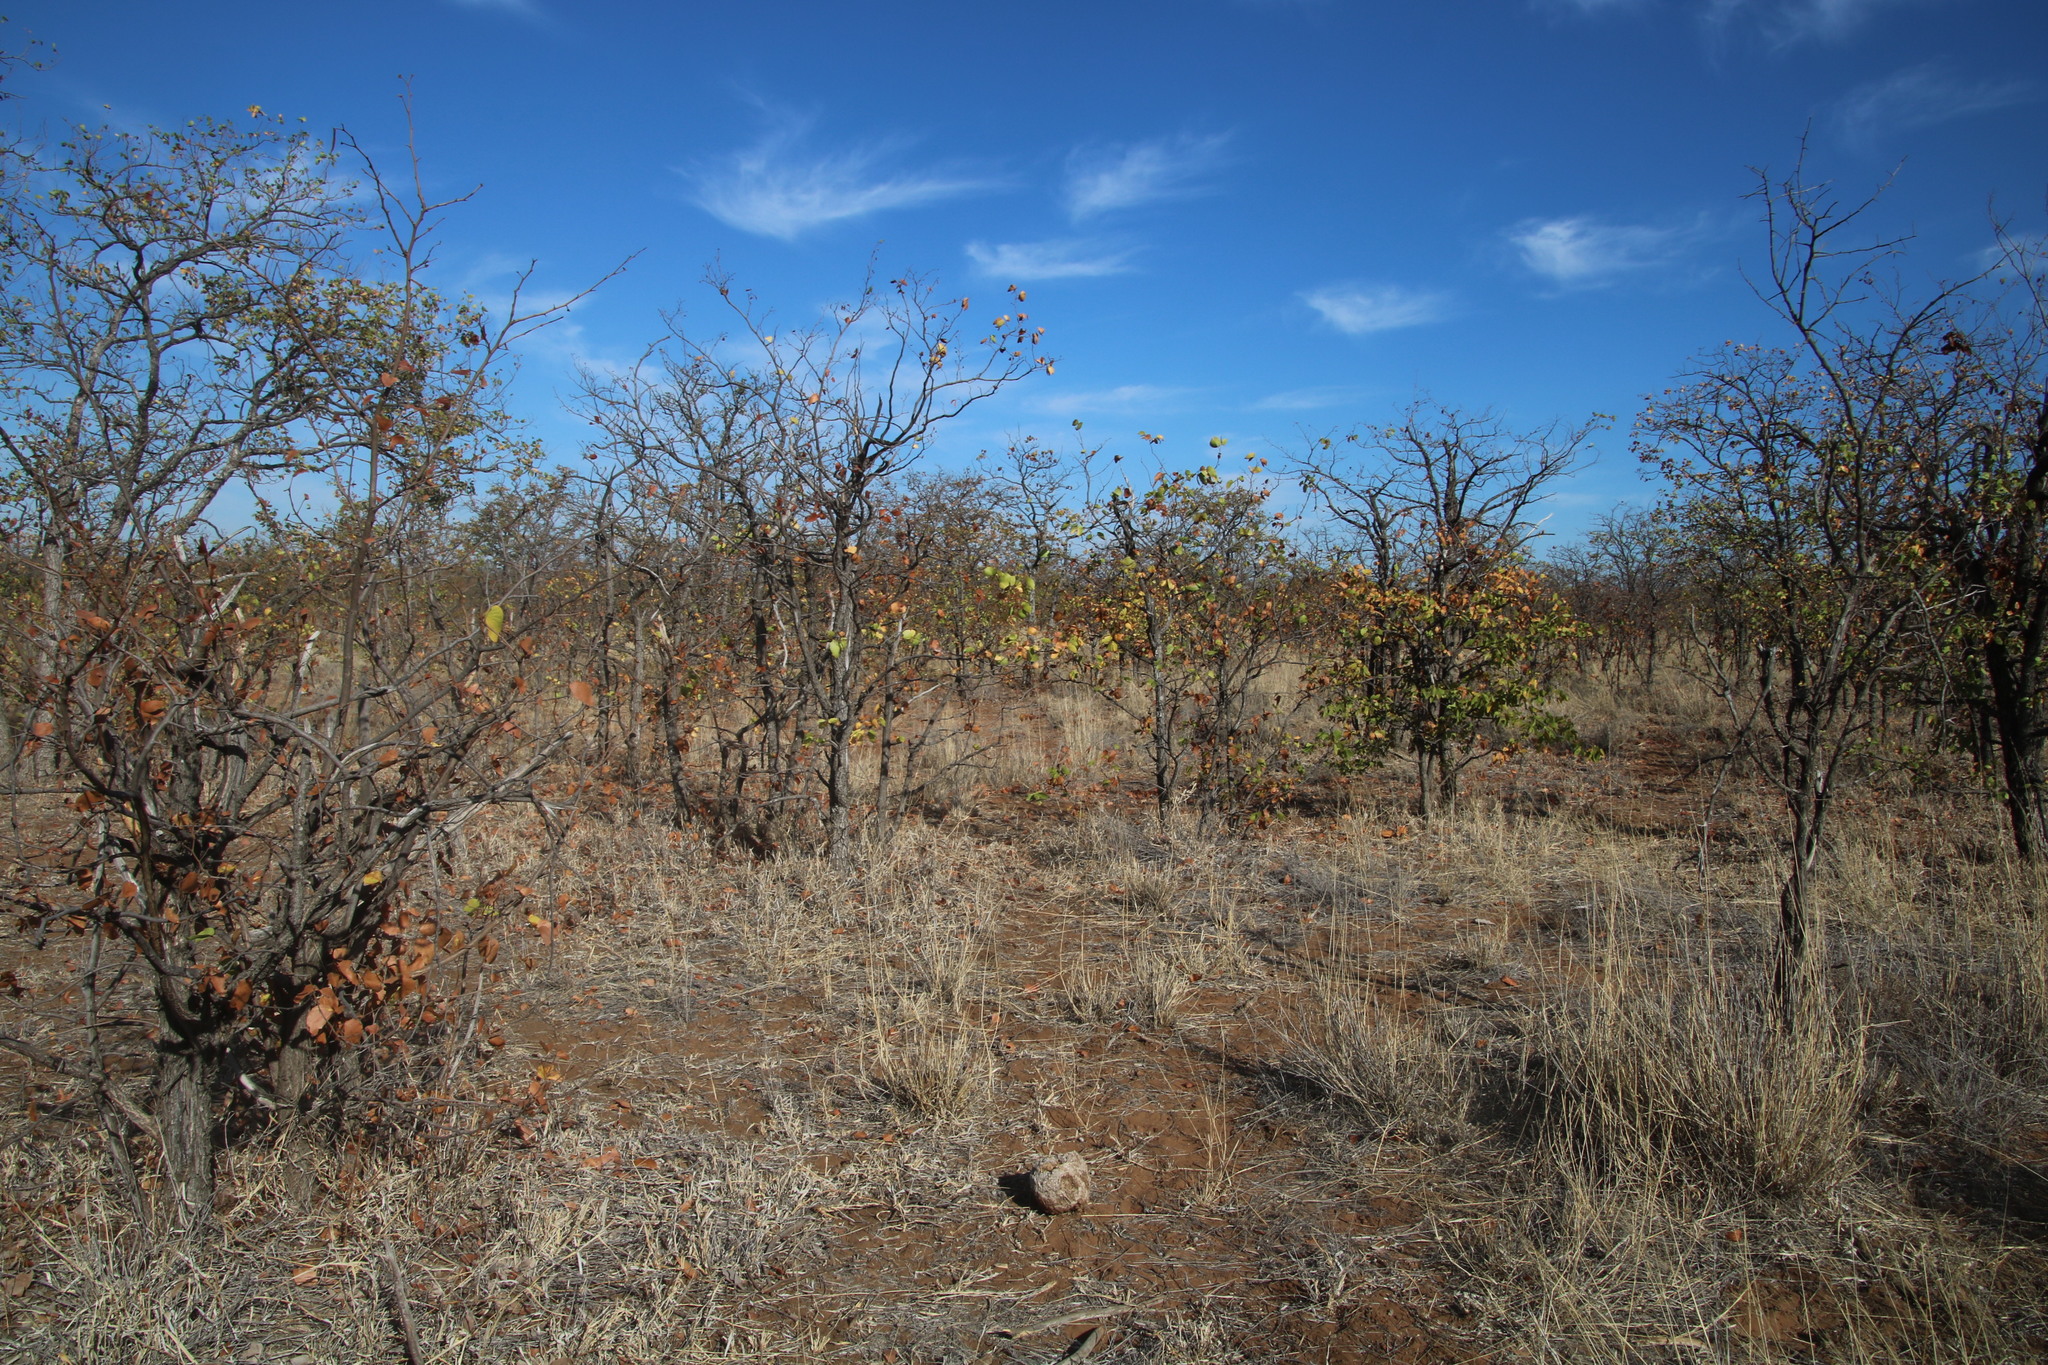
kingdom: Plantae
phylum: Tracheophyta
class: Magnoliopsida
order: Fabales
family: Fabaceae
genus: Colophospermum
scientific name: Colophospermum mopane
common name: Mopane
